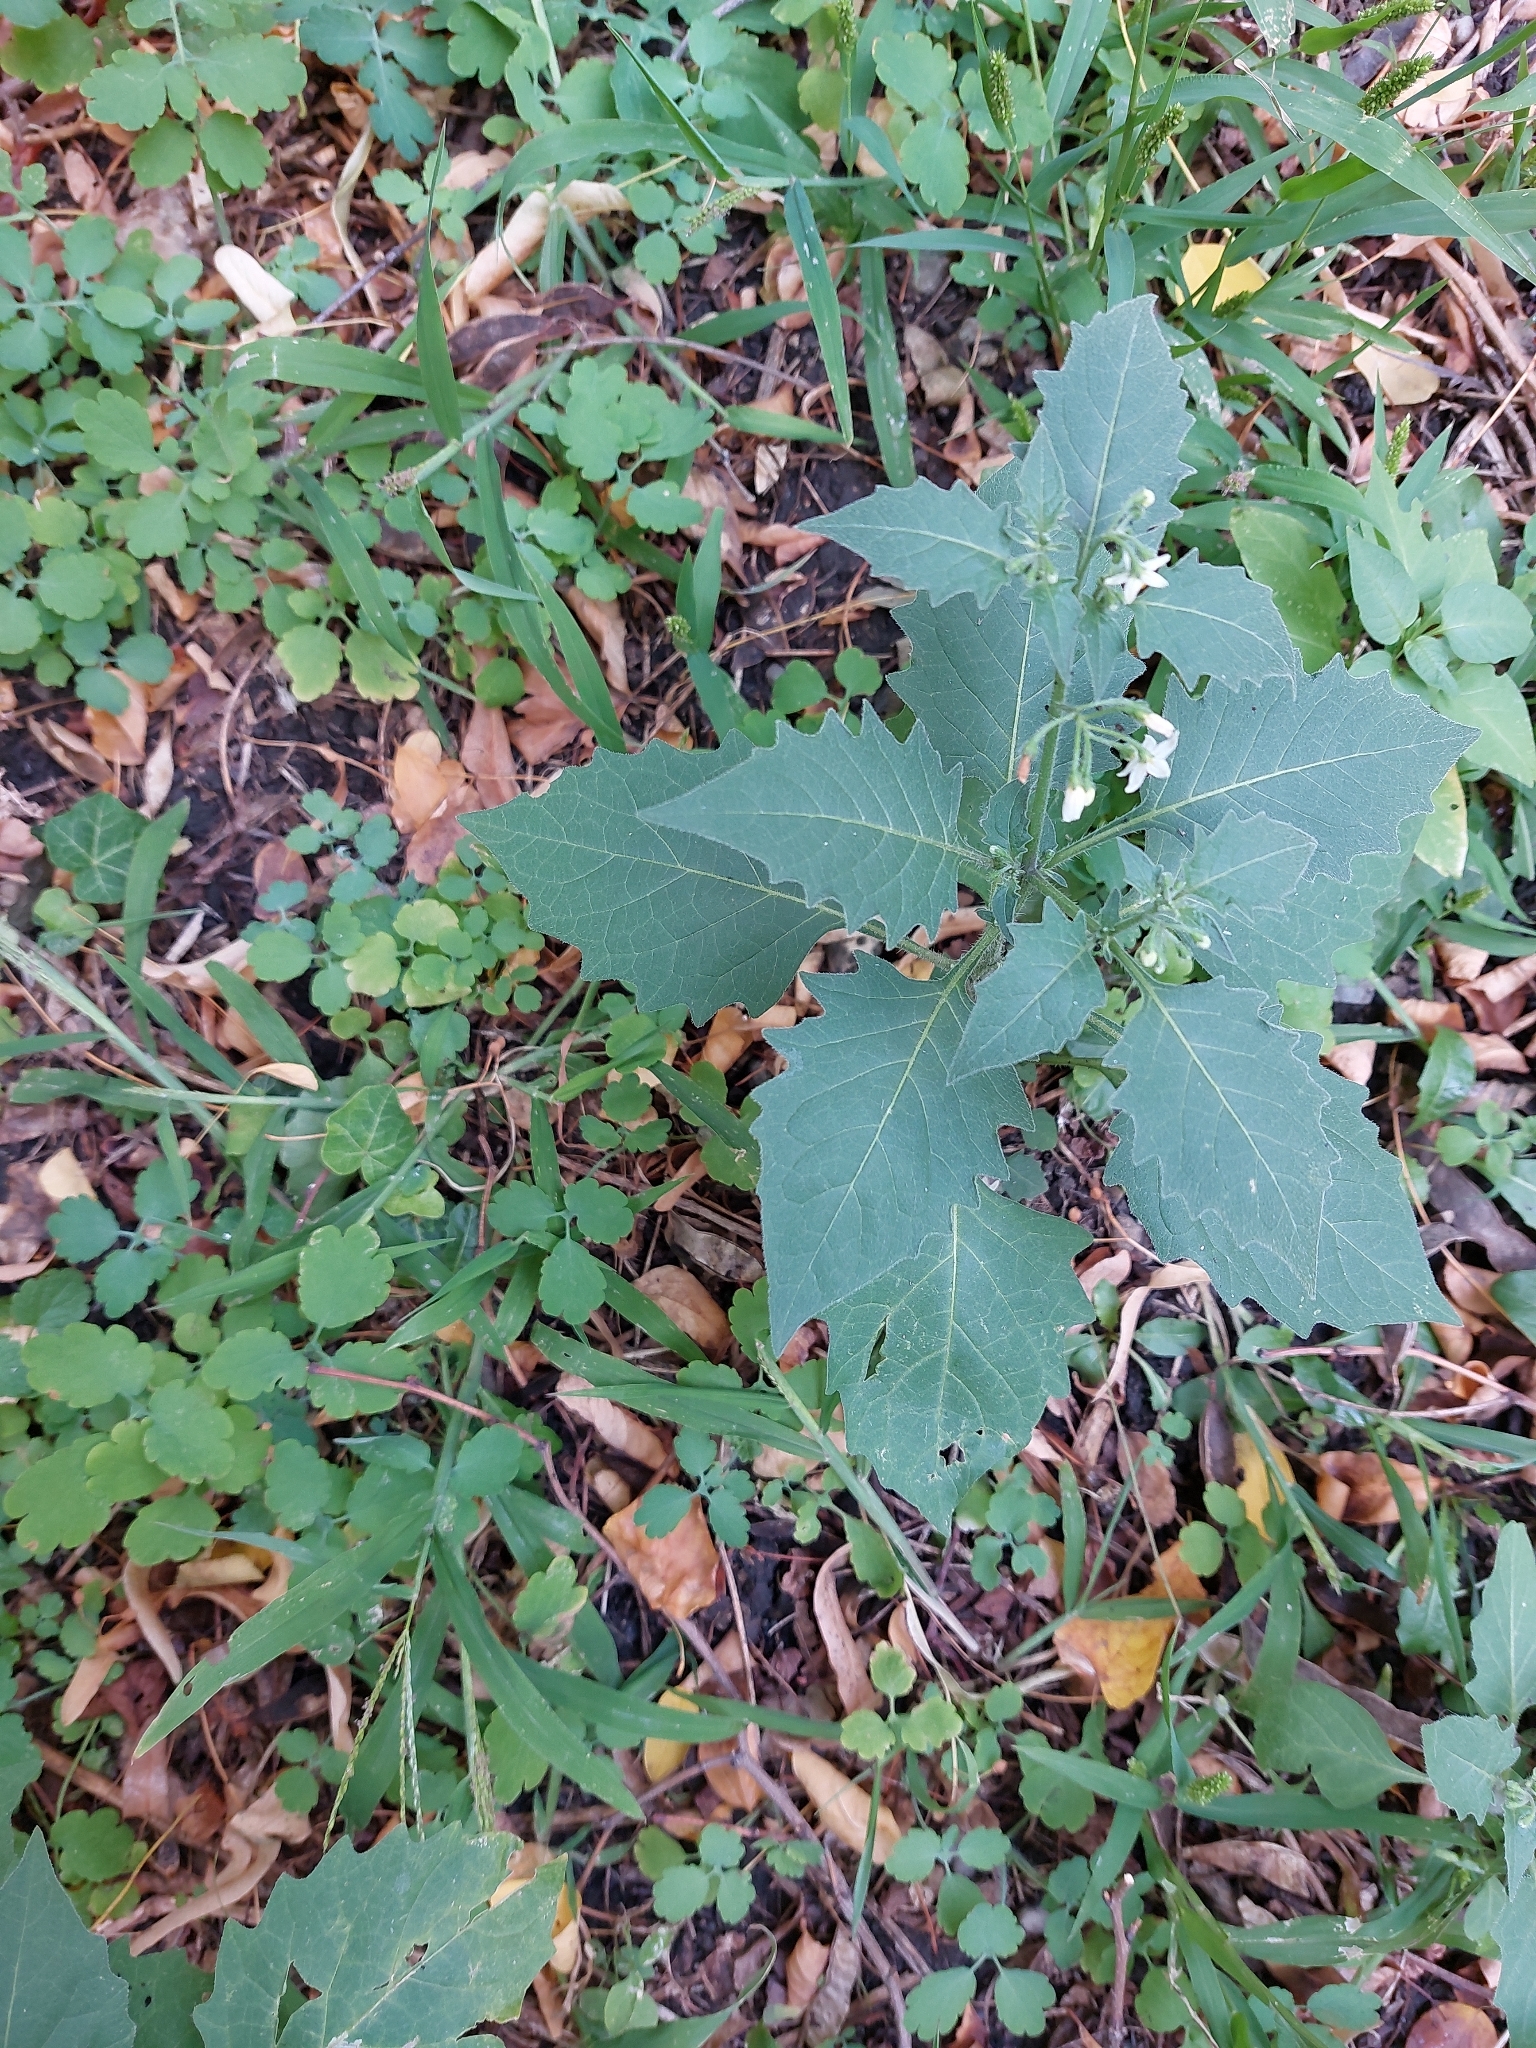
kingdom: Plantae
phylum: Tracheophyta
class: Magnoliopsida
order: Solanales
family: Solanaceae
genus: Solanum
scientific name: Solanum nigrum
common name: Black nightshade
